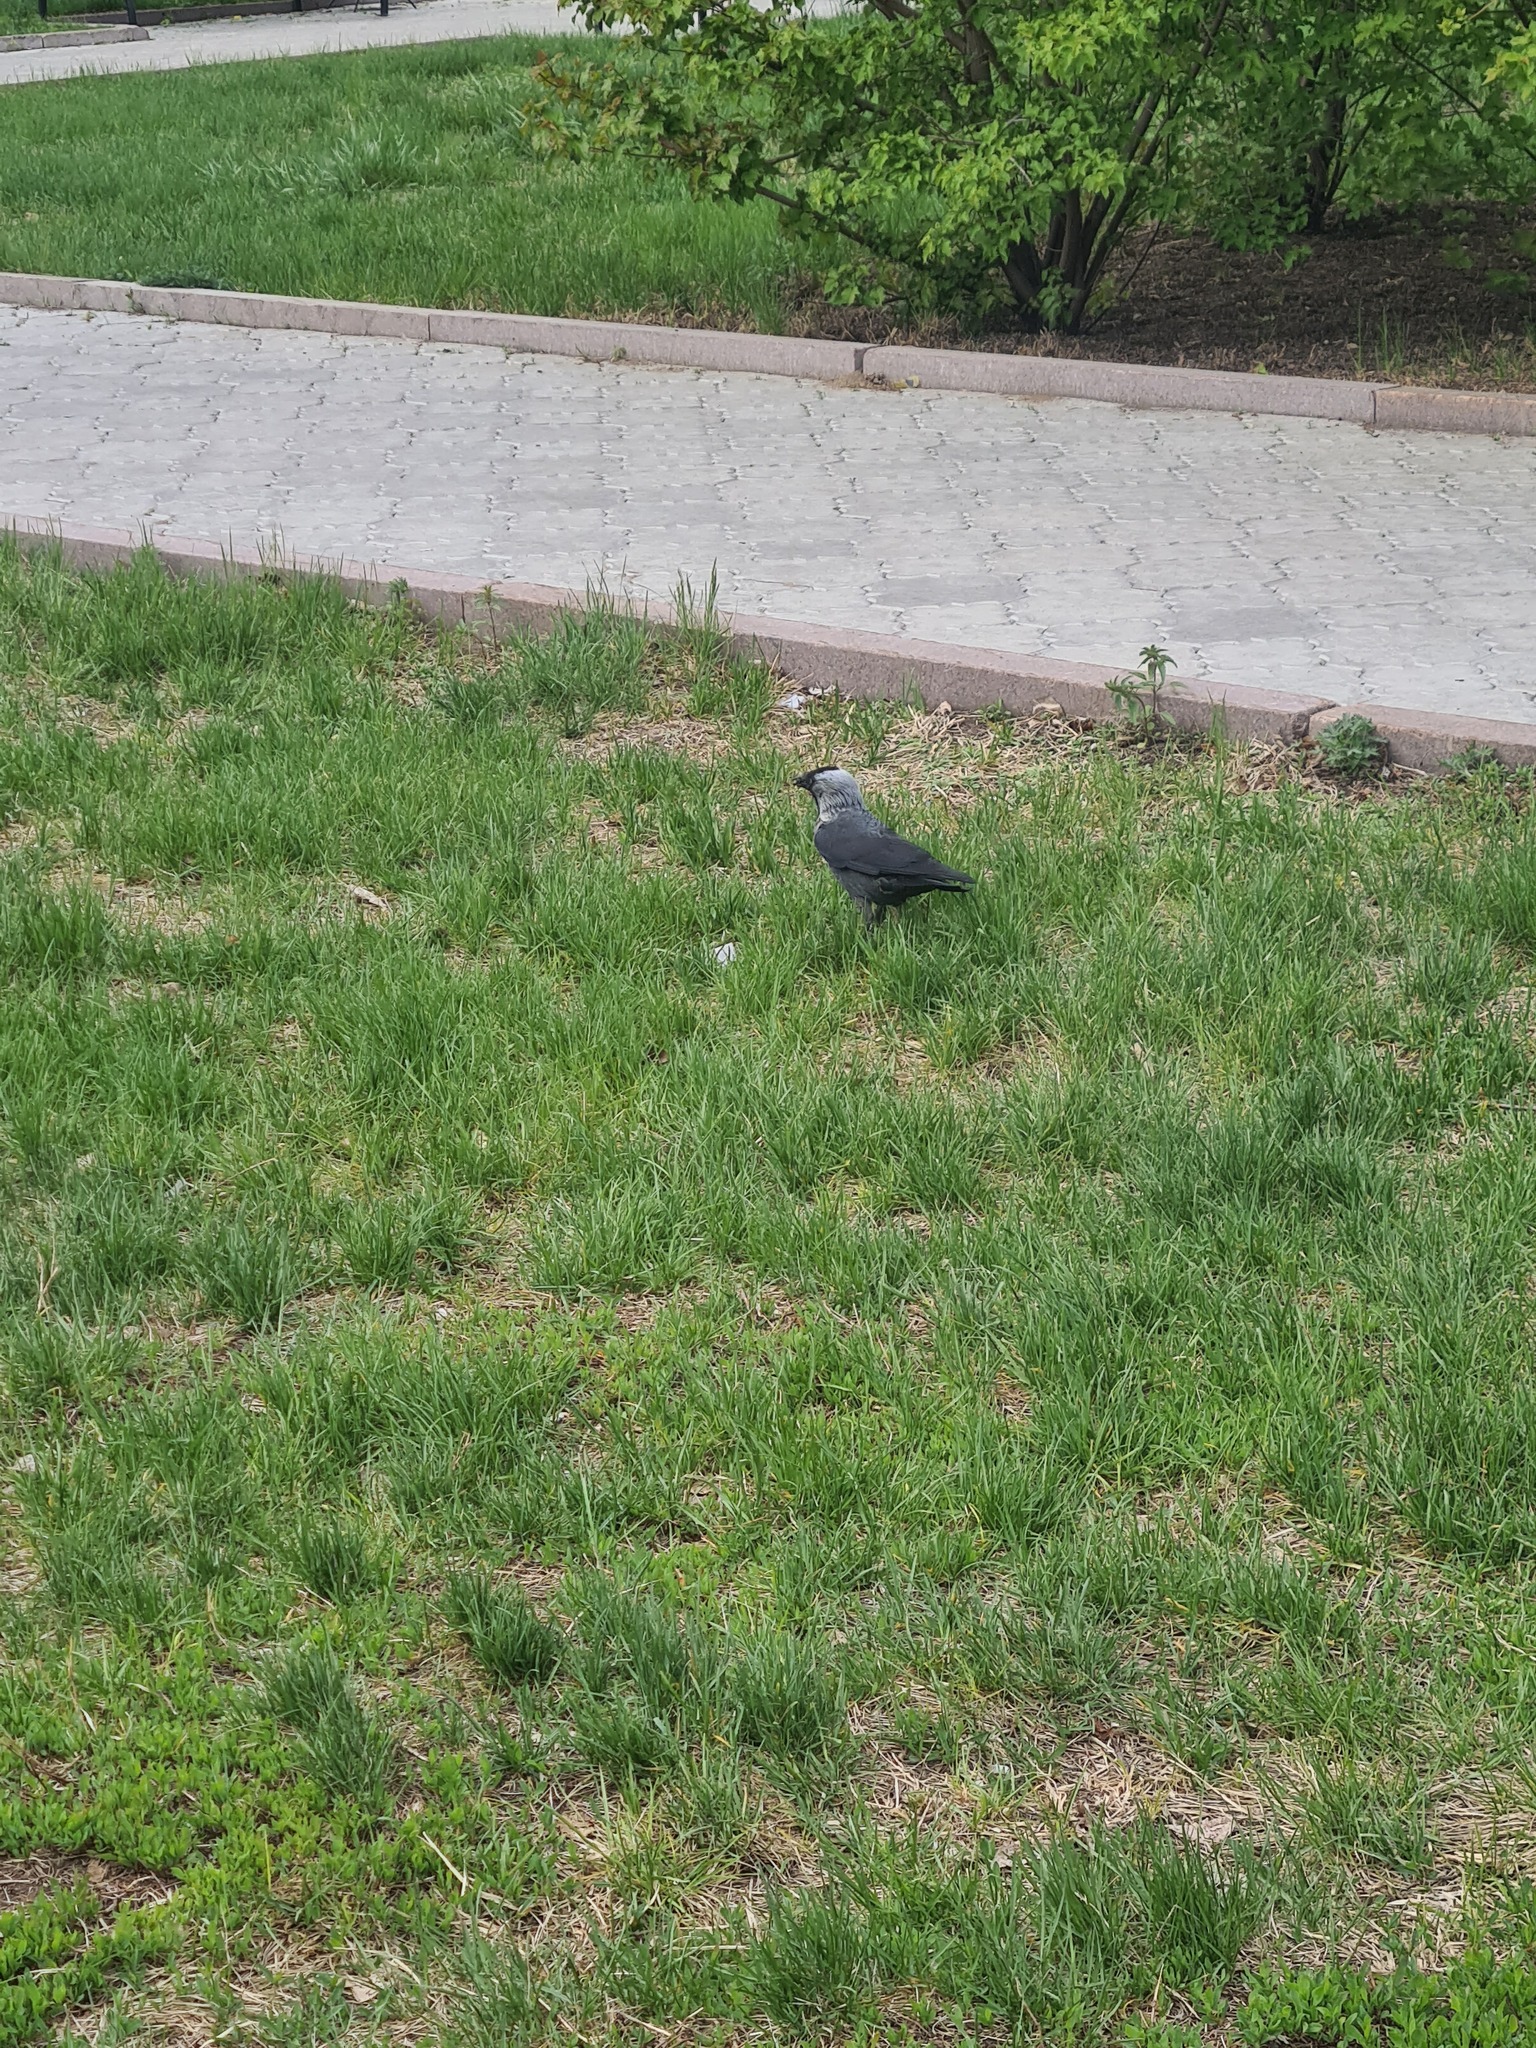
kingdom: Animalia
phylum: Chordata
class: Aves
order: Passeriformes
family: Corvidae
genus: Coloeus
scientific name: Coloeus monedula
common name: Western jackdaw
